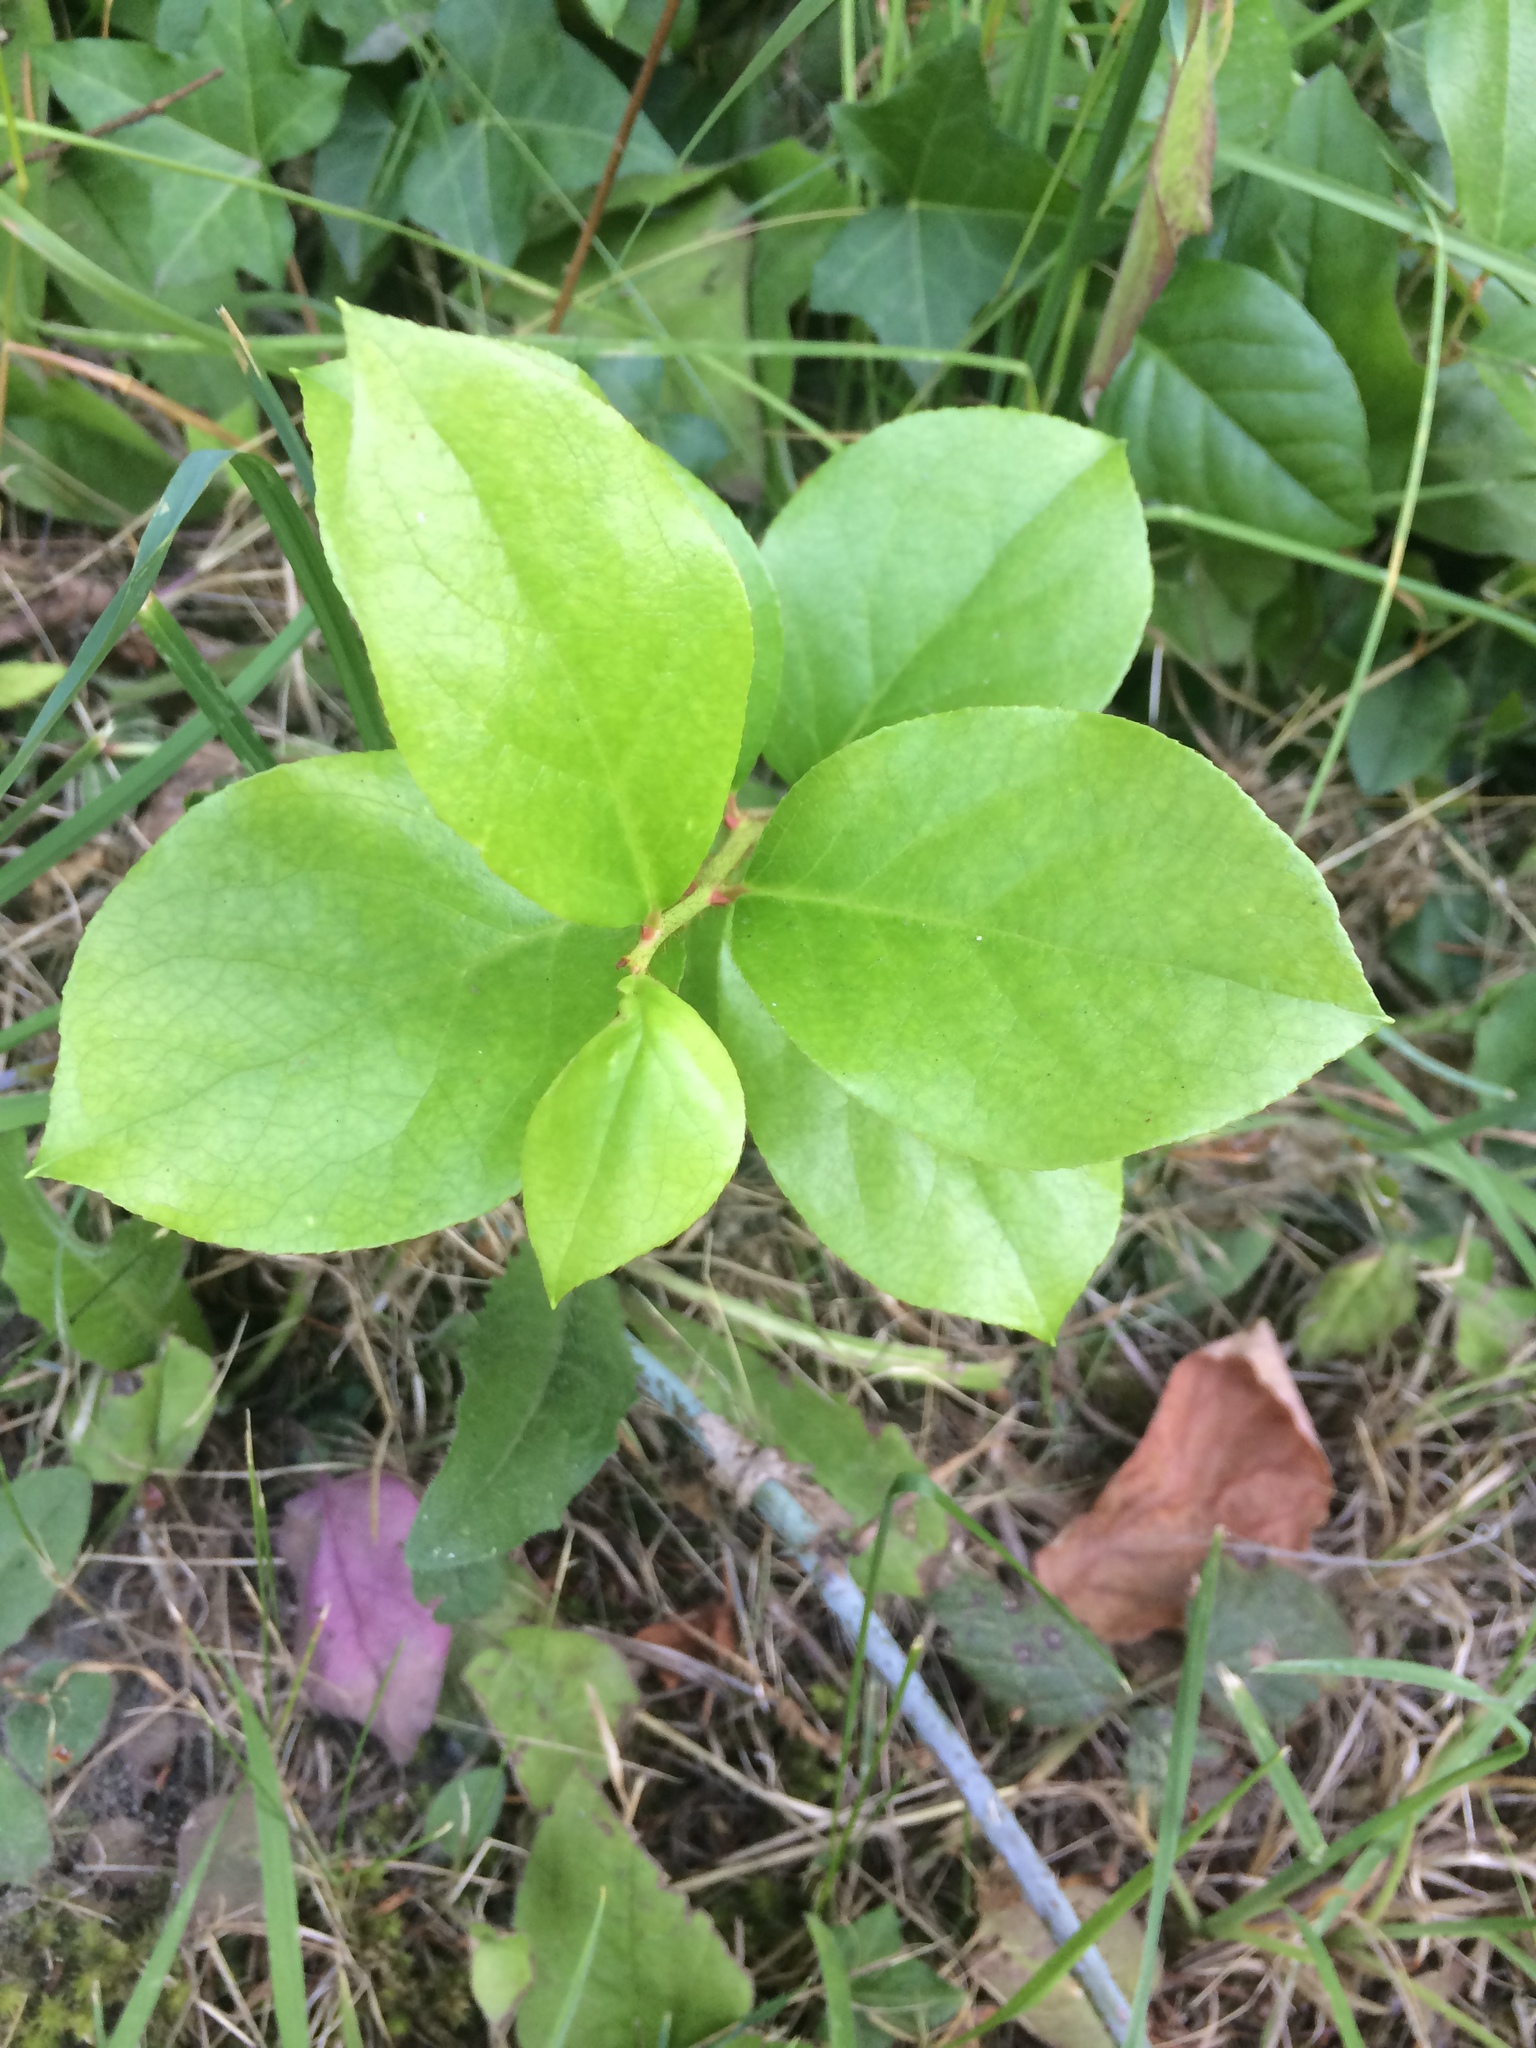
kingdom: Plantae
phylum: Tracheophyta
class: Magnoliopsida
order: Ericales
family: Ericaceae
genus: Gaultheria
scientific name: Gaultheria shallon
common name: Shallon
